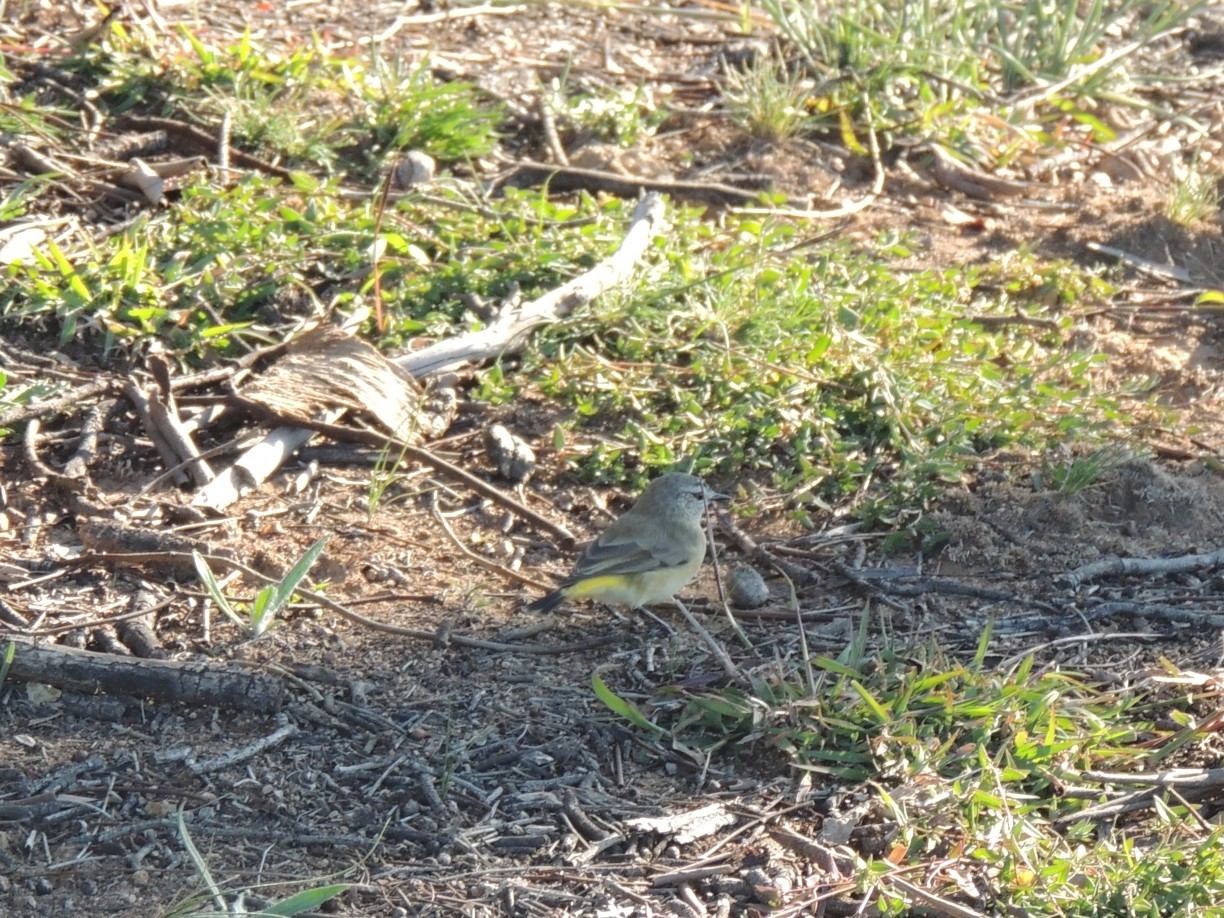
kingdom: Animalia
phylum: Chordata
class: Aves
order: Passeriformes
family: Acanthizidae
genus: Acanthiza
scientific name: Acanthiza chrysorrhoa
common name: Yellow-rumped thornbill
